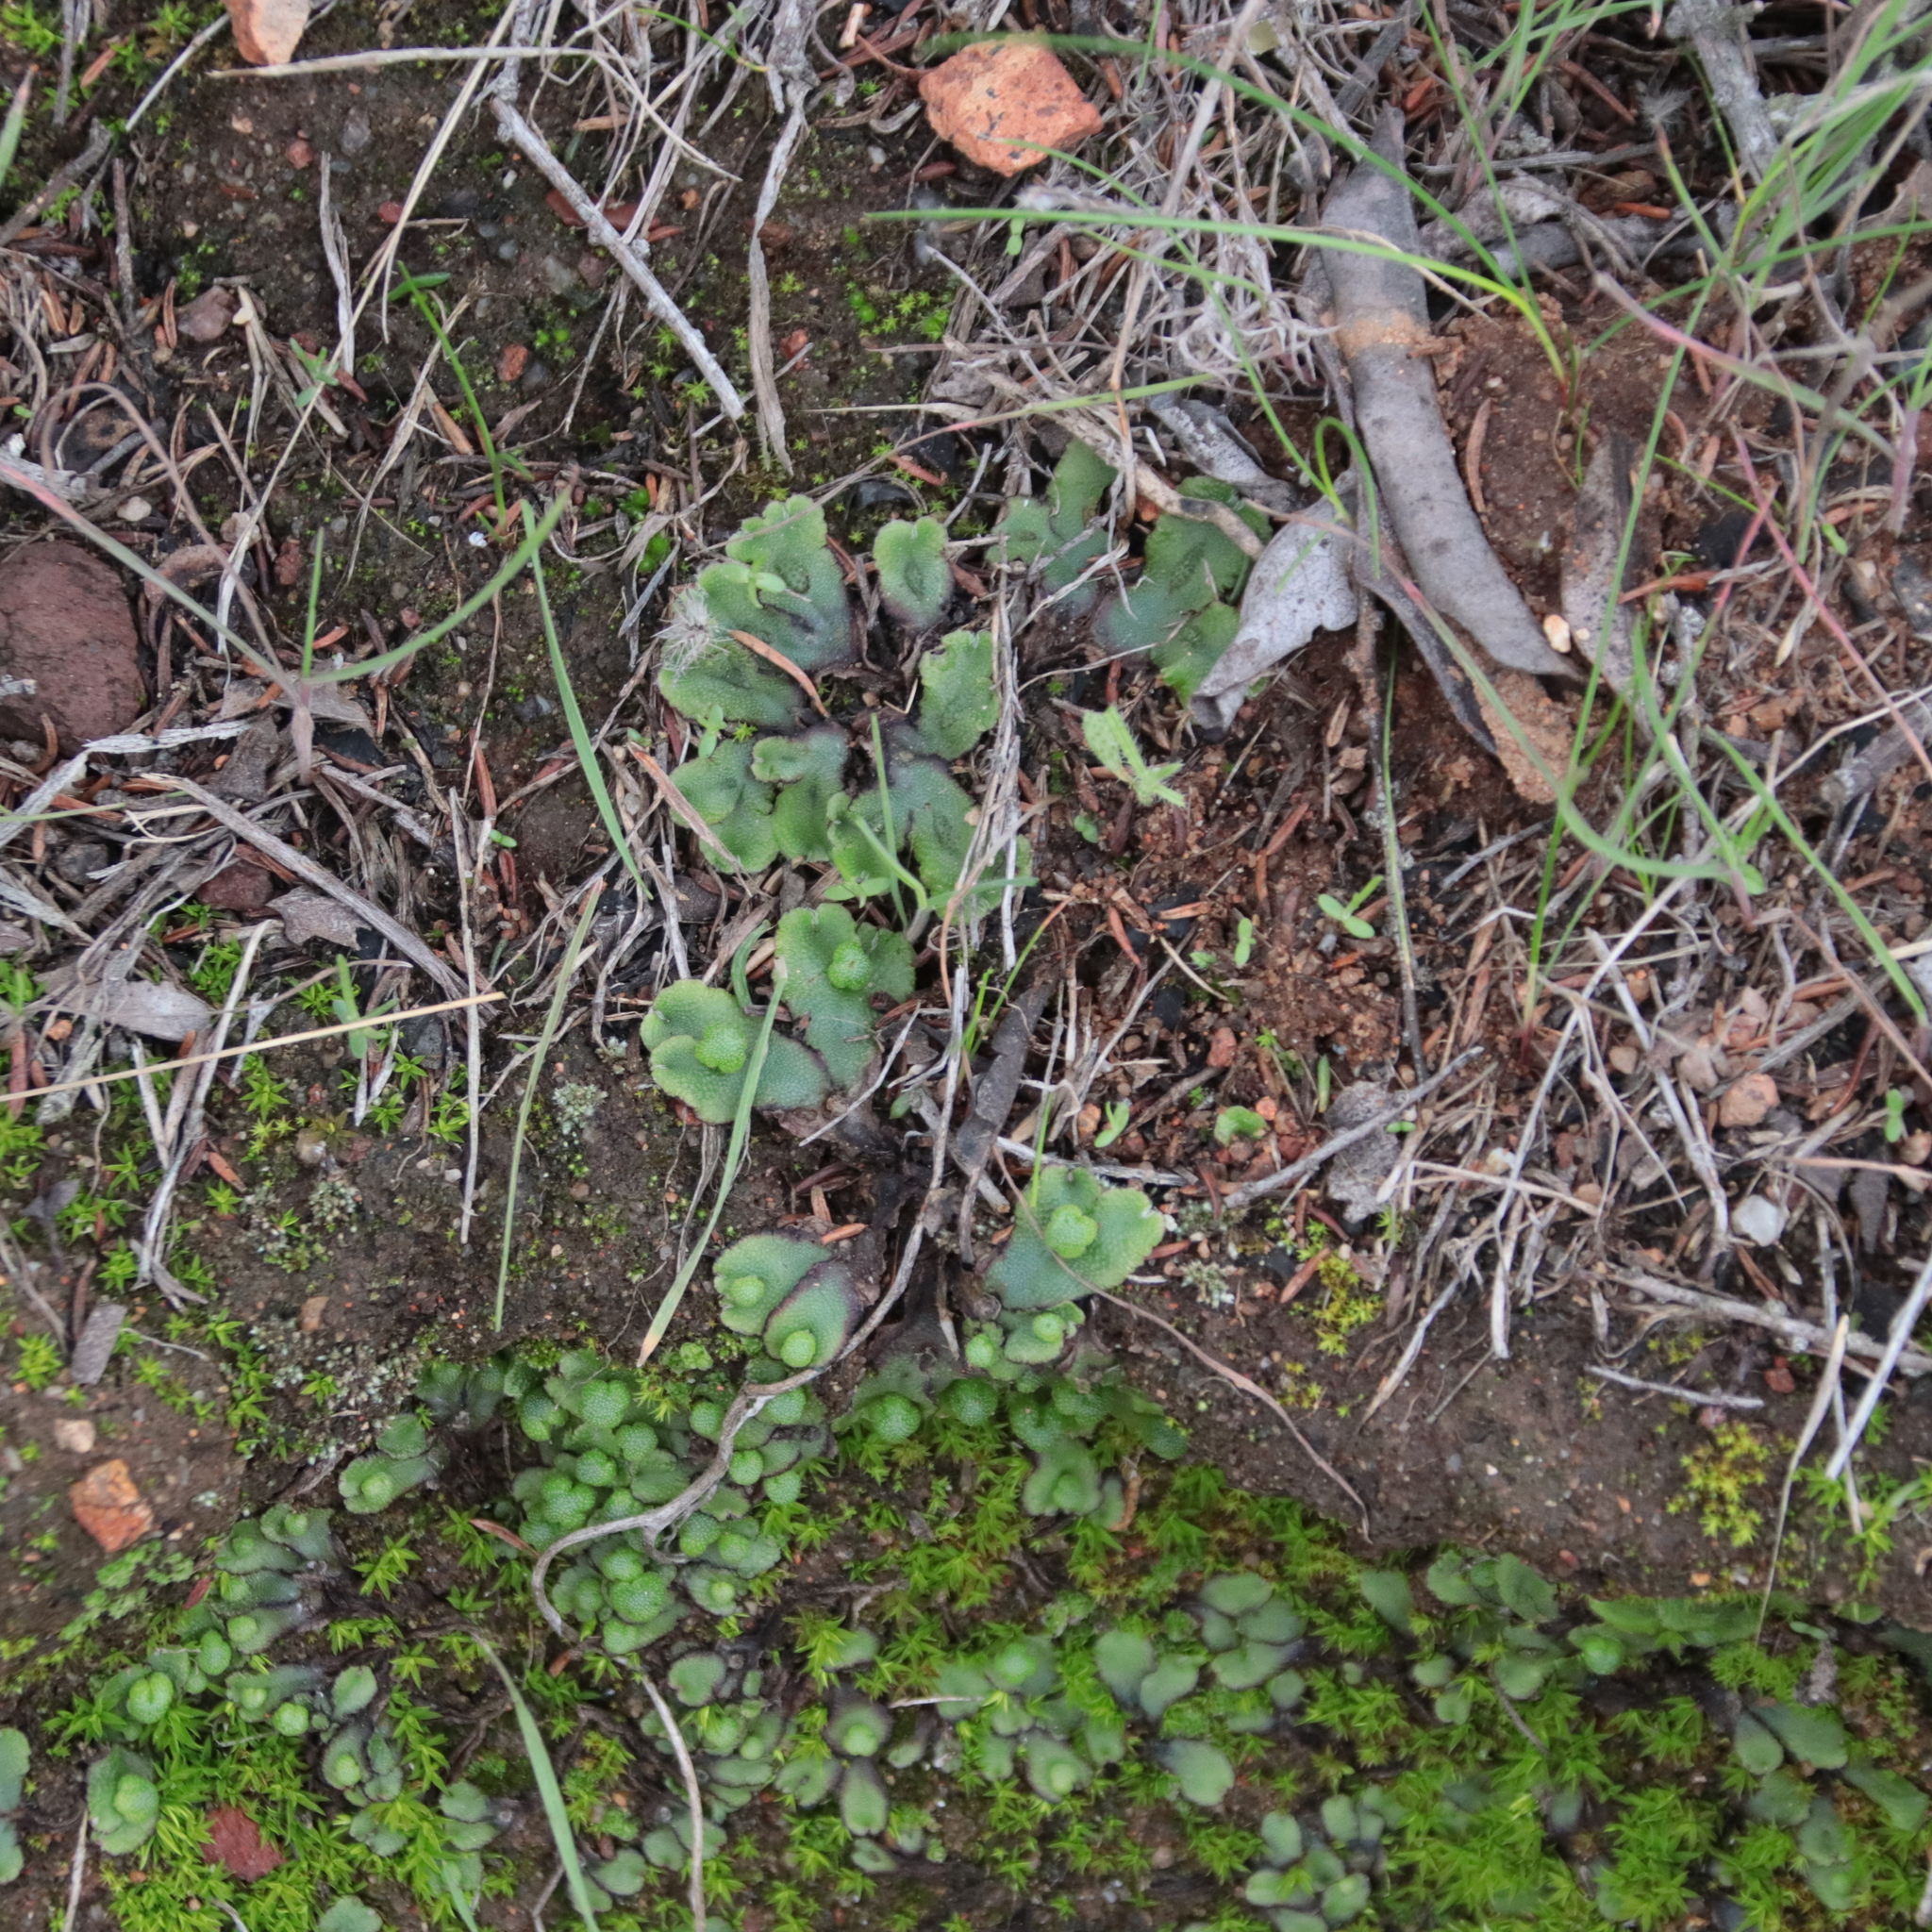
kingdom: Plantae
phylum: Marchantiophyta
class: Marchantiopsida
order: Marchantiales
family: Aytoniaceae
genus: Asterella
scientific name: Asterella californica
